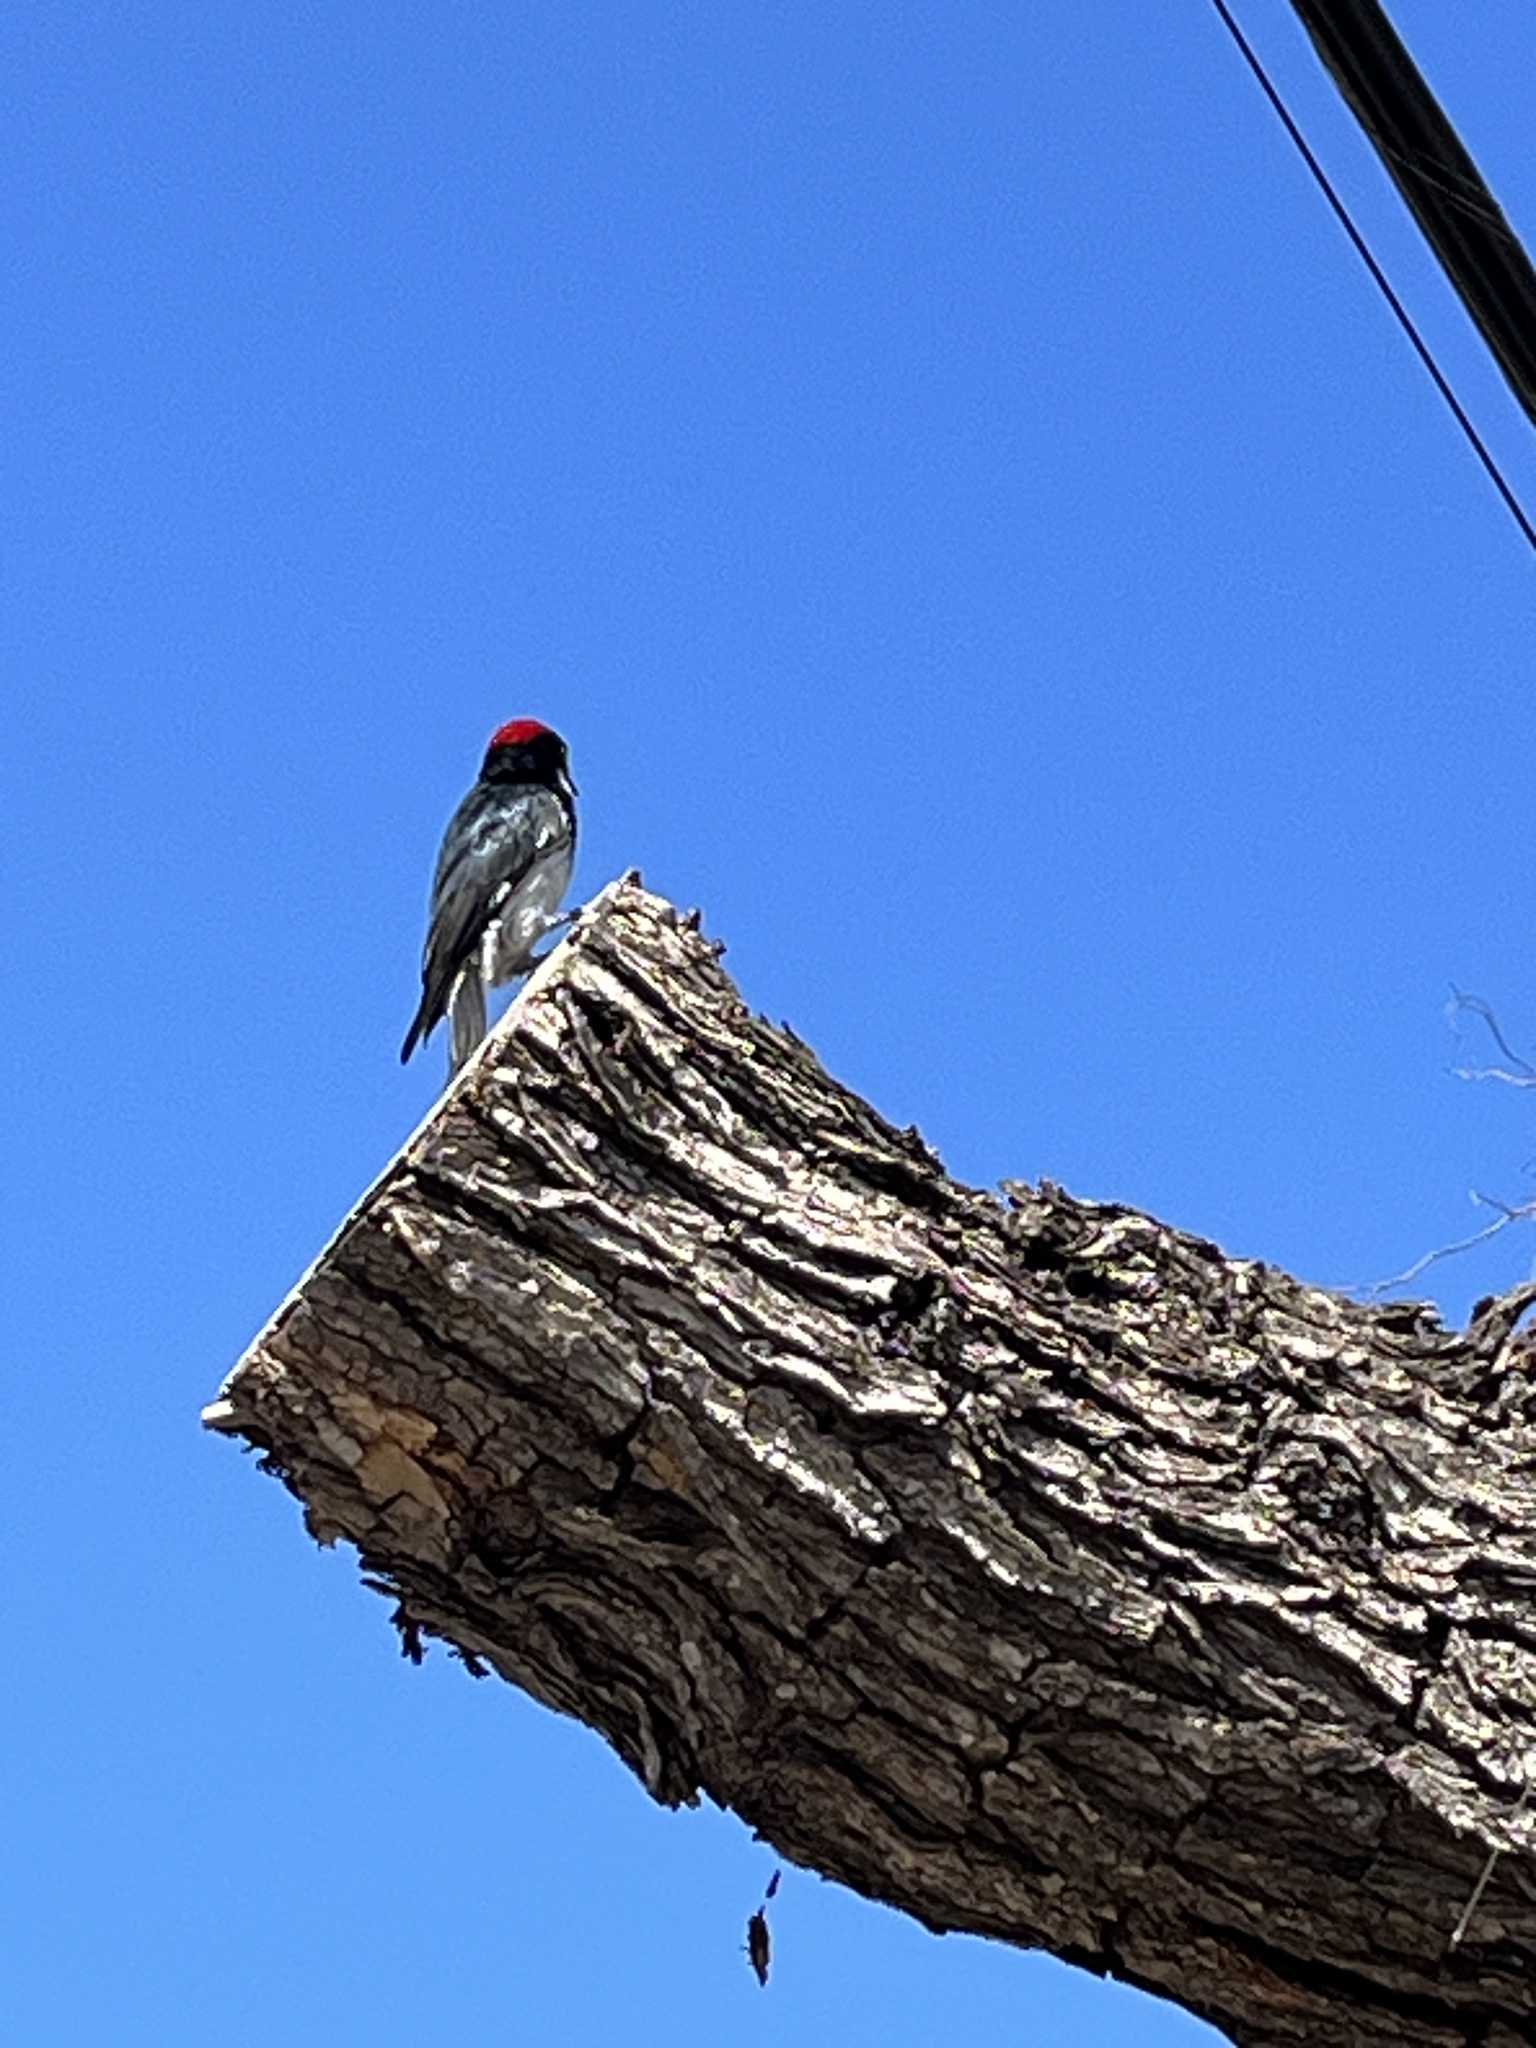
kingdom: Animalia
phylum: Chordata
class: Aves
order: Piciformes
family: Picidae
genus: Melanerpes
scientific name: Melanerpes formicivorus
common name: Acorn woodpecker
